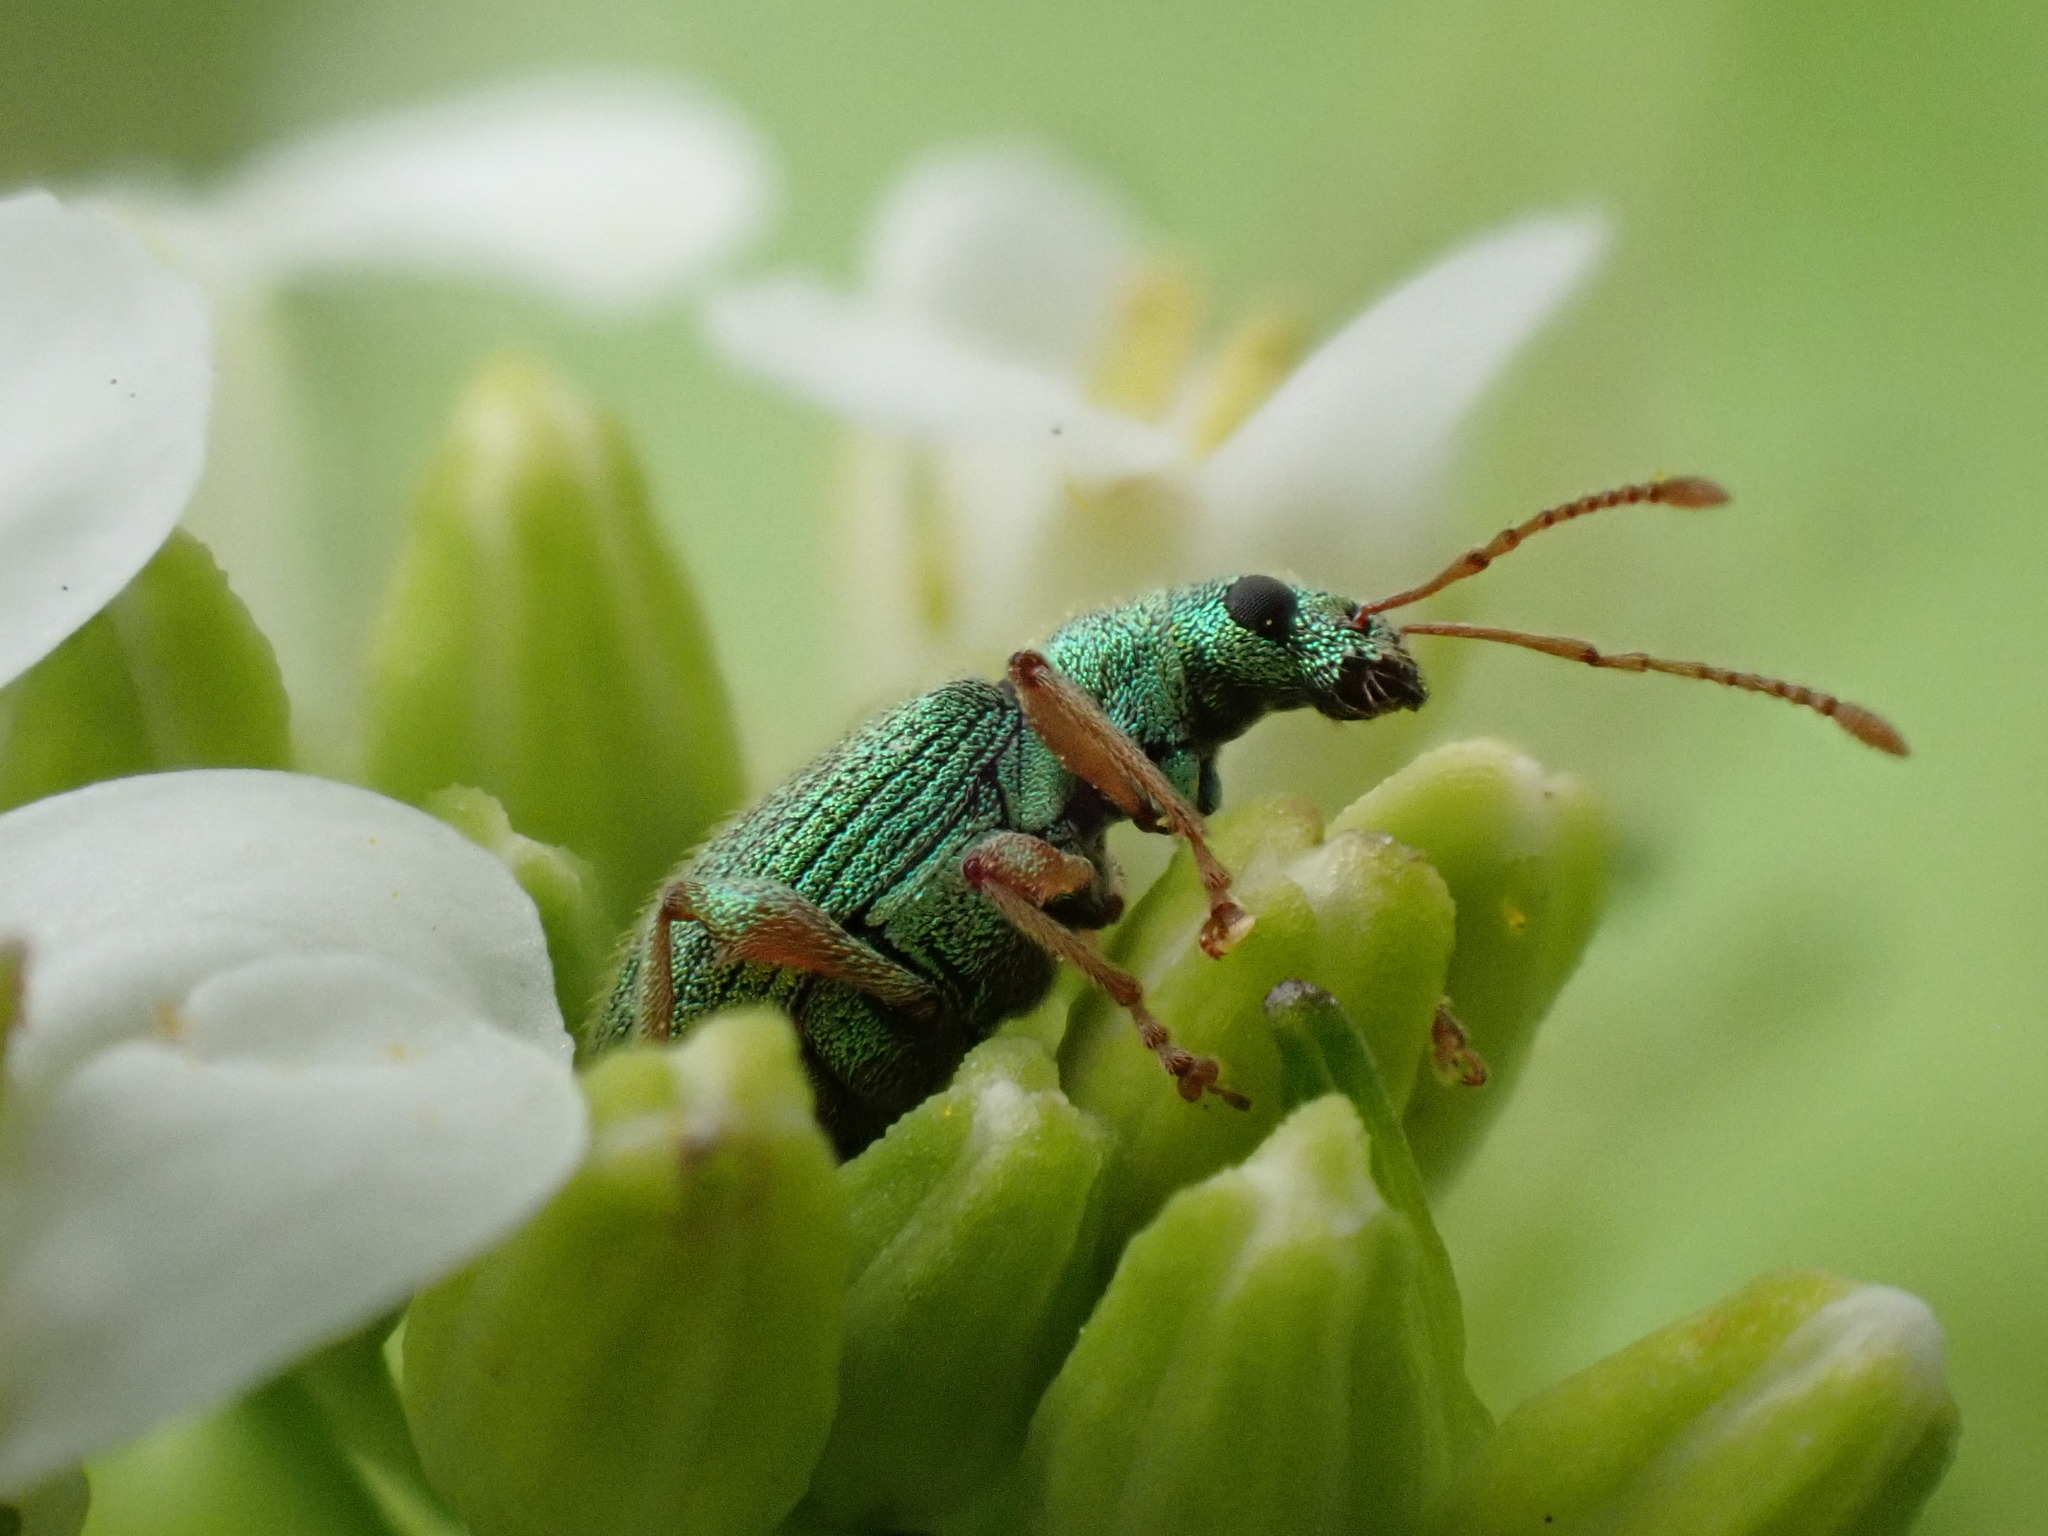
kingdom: Animalia
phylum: Arthropoda
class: Insecta
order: Coleoptera
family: Curculionidae
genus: Phyllobius
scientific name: Phyllobius argentatus
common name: Silver-green leaf weevil
